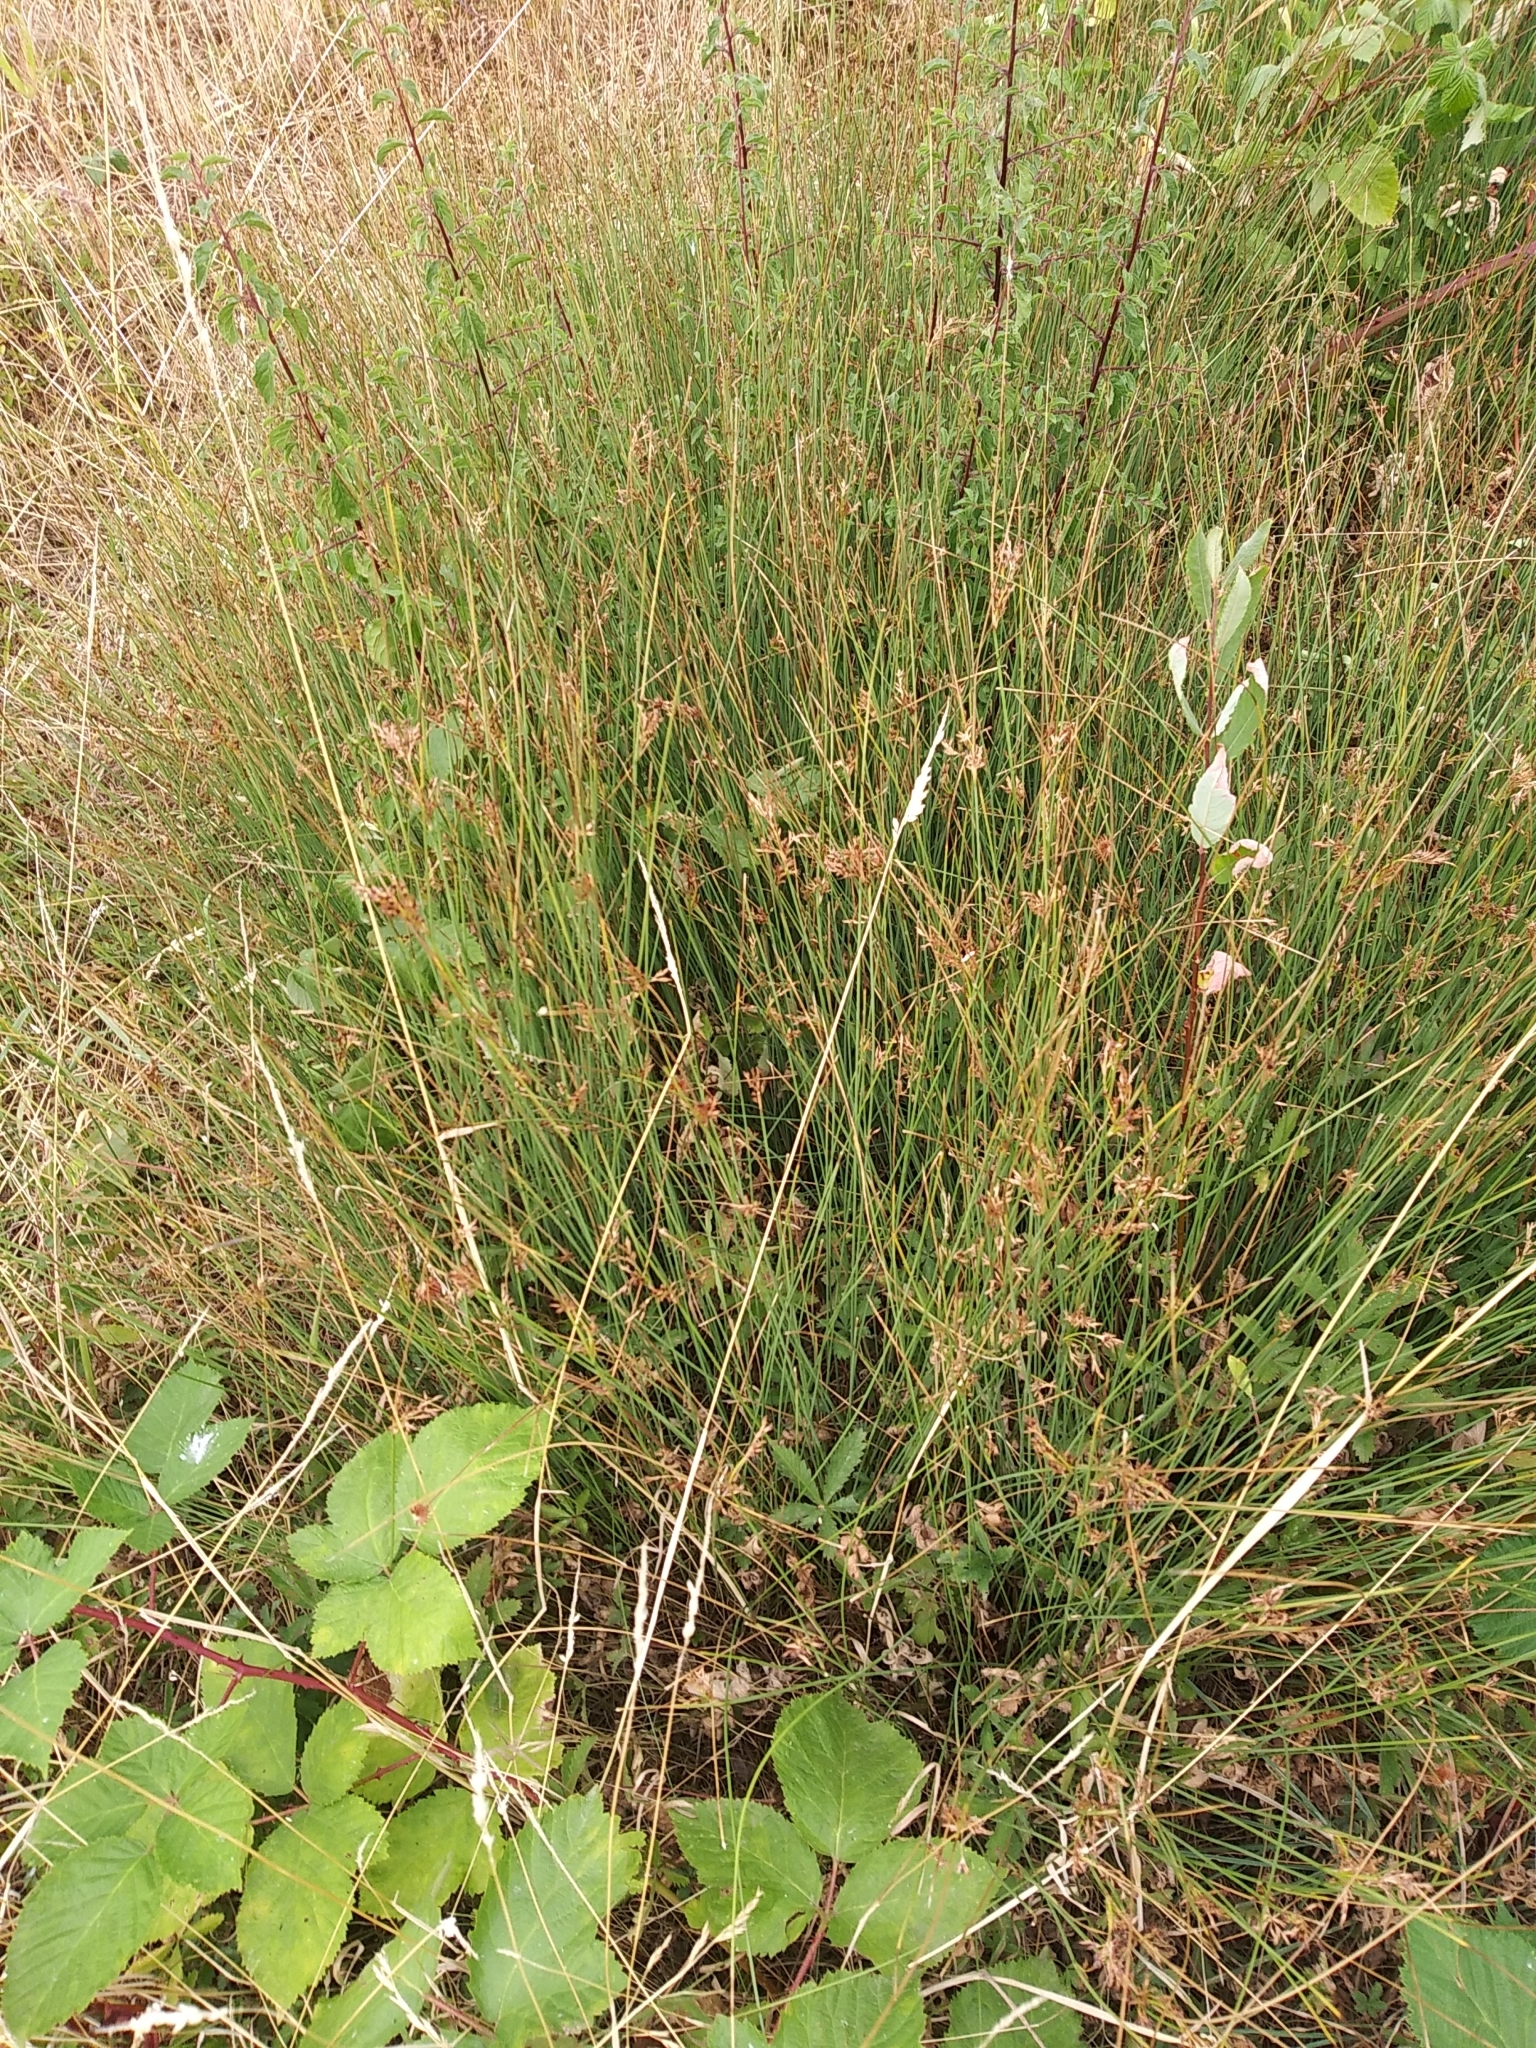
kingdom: Plantae
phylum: Tracheophyta
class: Liliopsida
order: Poales
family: Juncaceae
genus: Juncus
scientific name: Juncus inflexus
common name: Hard rush
